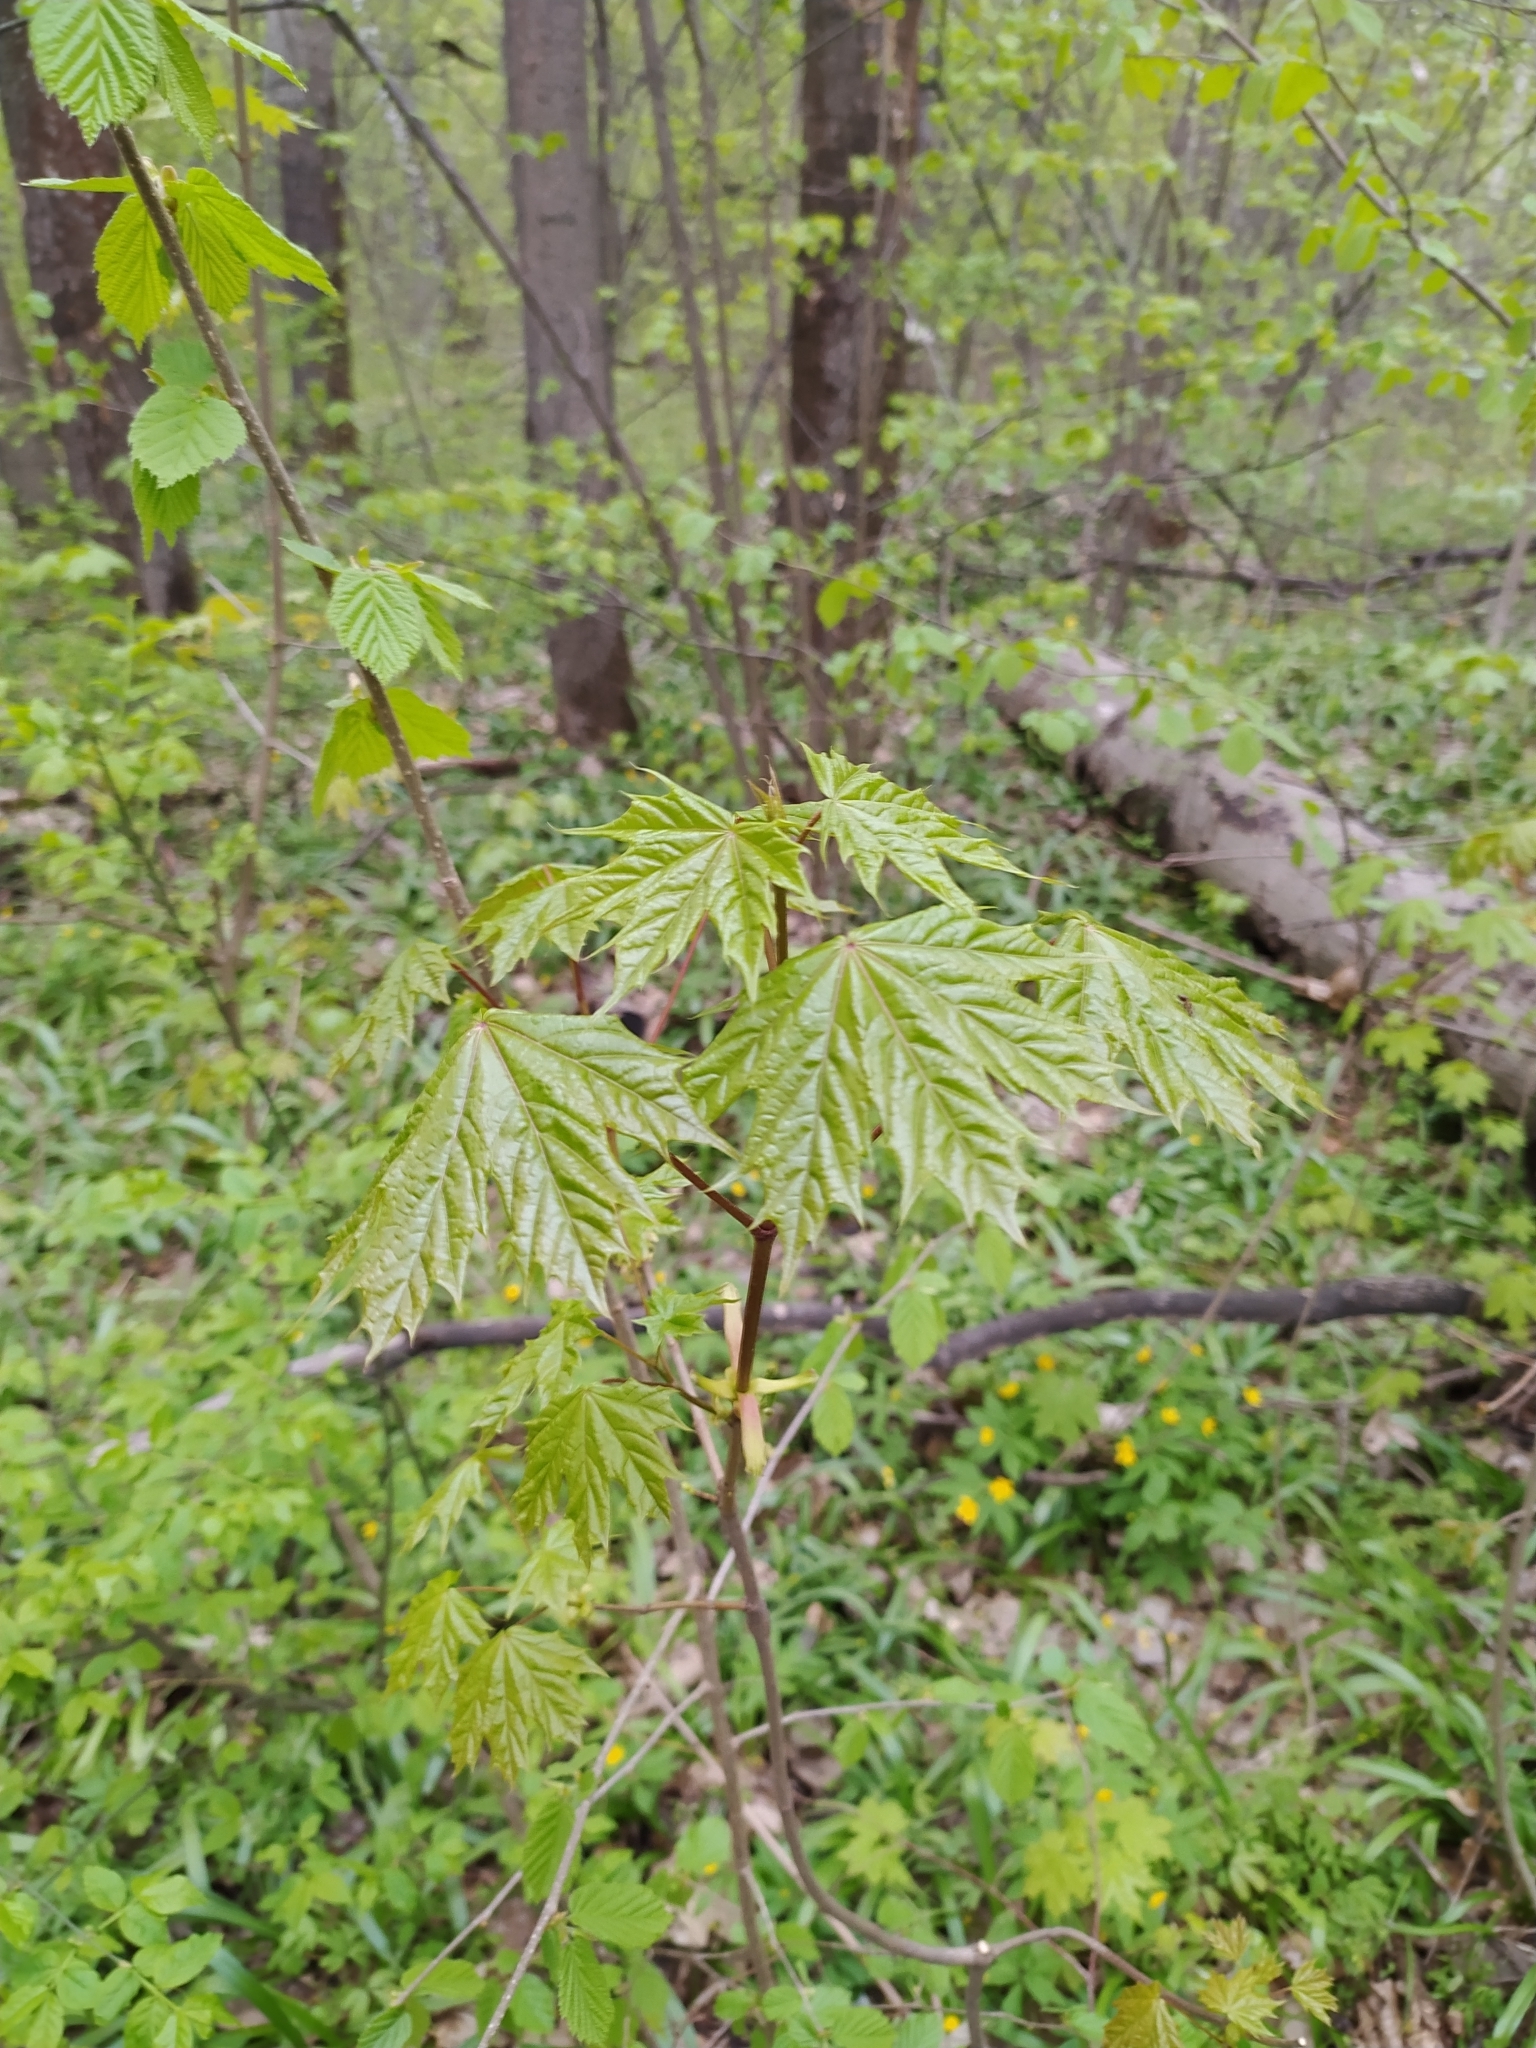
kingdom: Plantae
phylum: Tracheophyta
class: Magnoliopsida
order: Sapindales
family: Sapindaceae
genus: Acer
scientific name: Acer platanoides
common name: Norway maple
